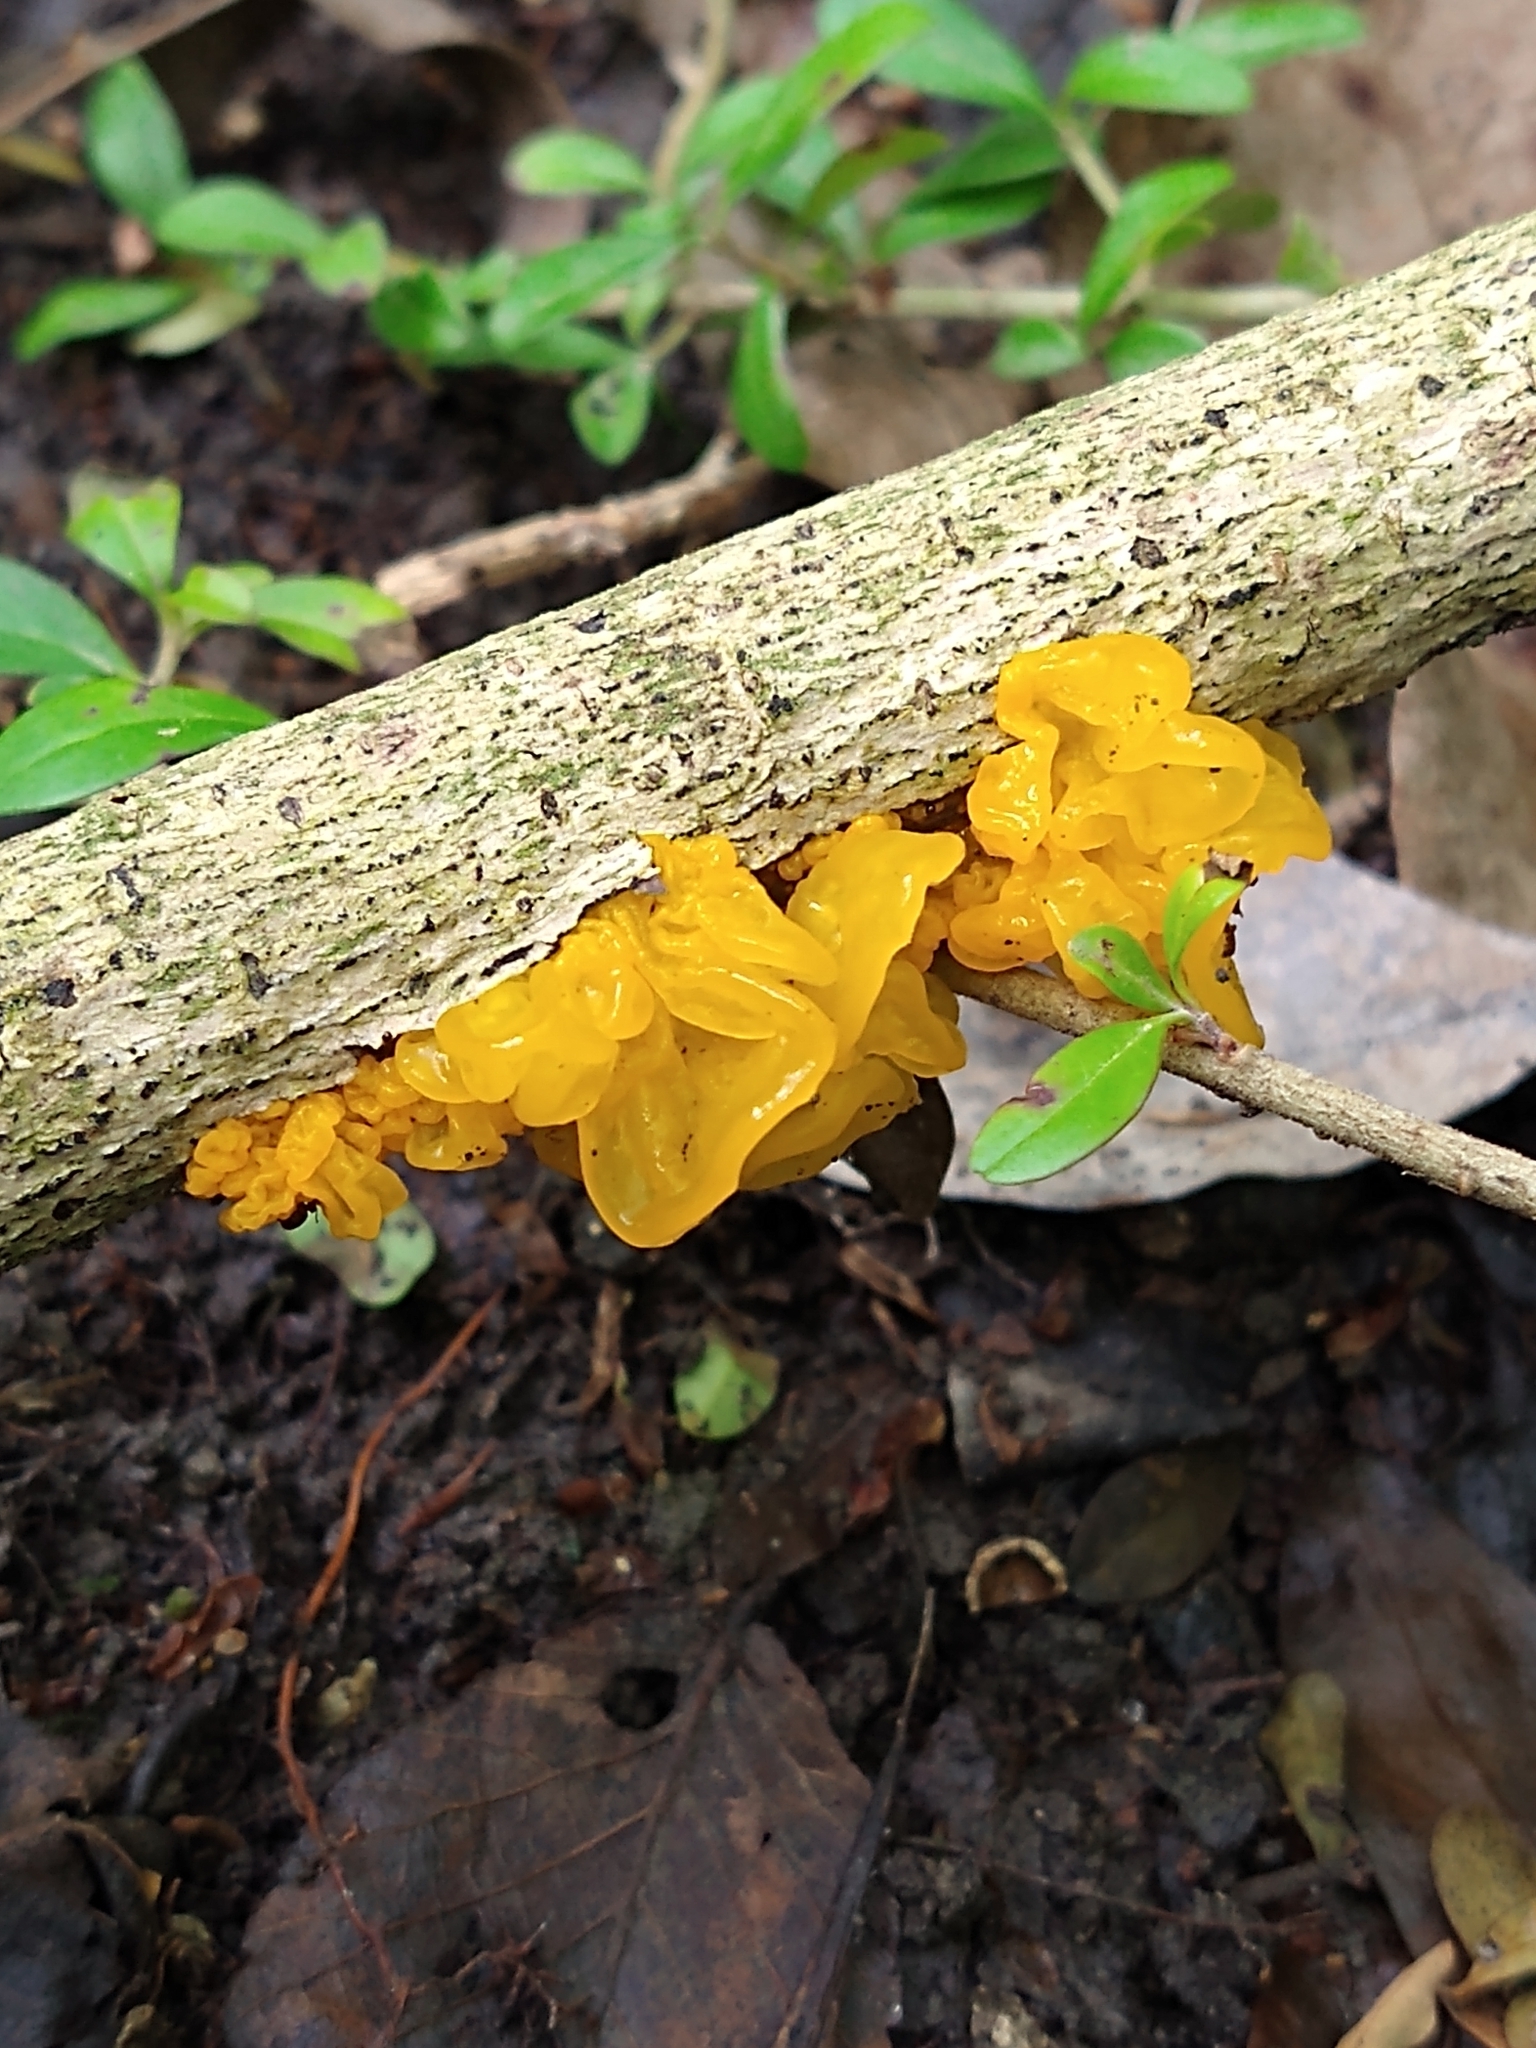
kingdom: Fungi
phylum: Basidiomycota
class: Tremellomycetes
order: Tremellales
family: Tremellaceae
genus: Tremella
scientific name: Tremella mesenterica
